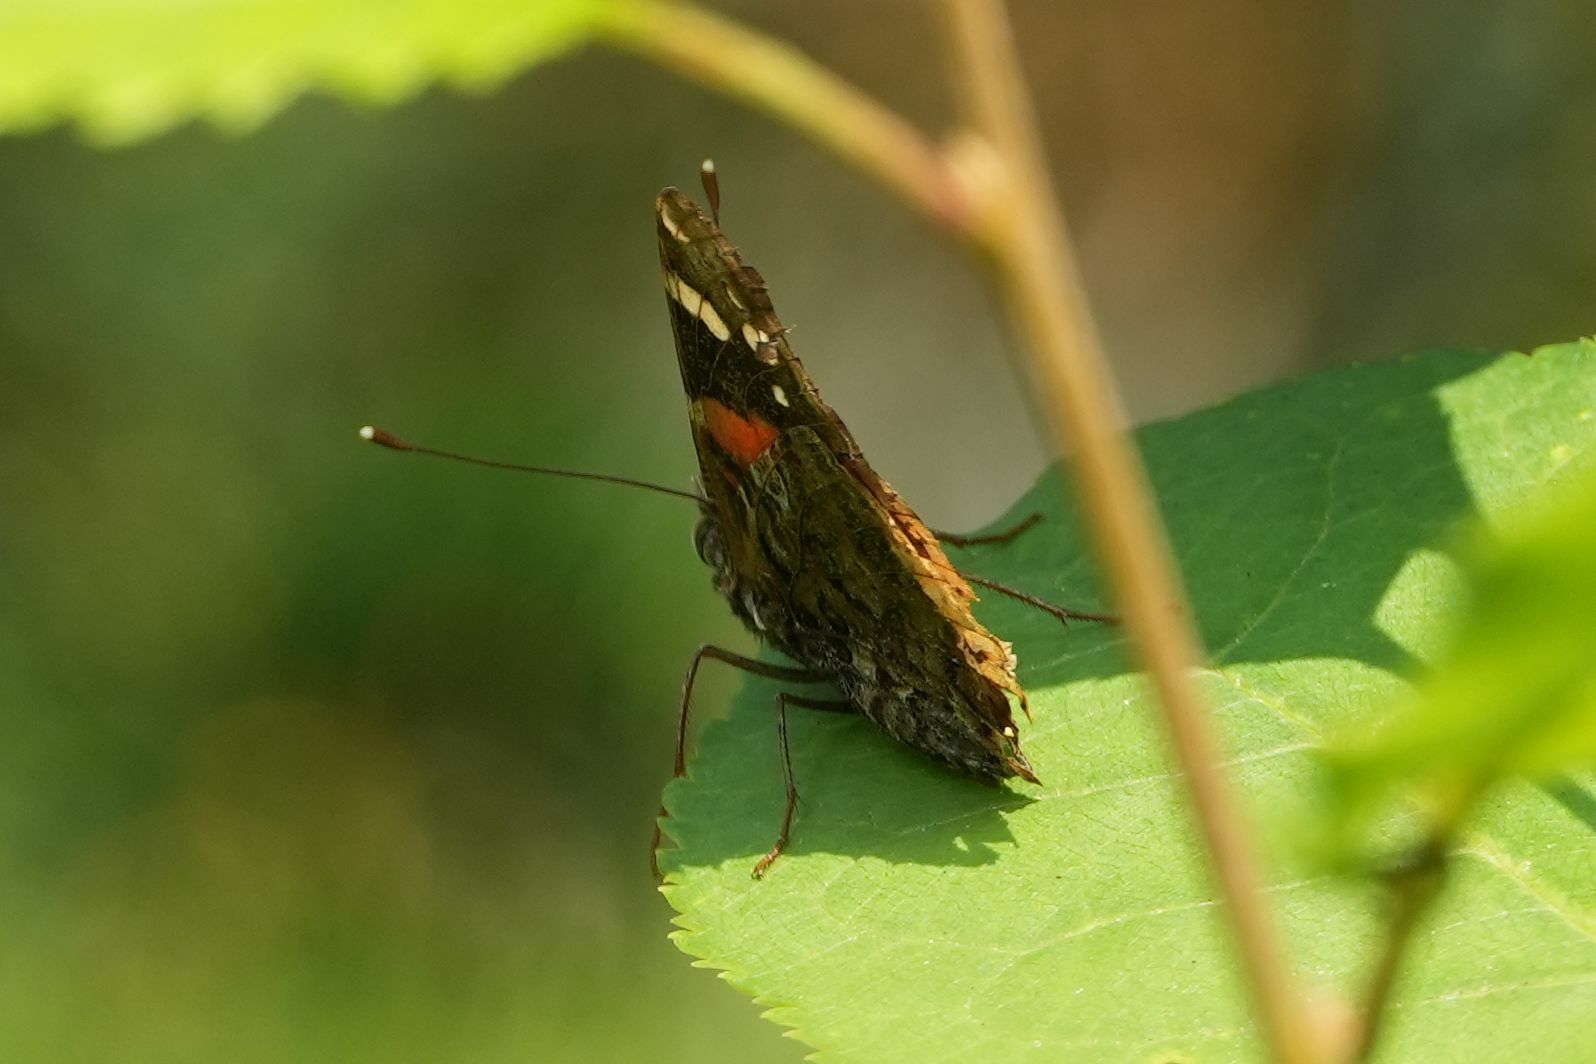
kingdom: Animalia
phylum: Arthropoda
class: Insecta
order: Lepidoptera
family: Nymphalidae
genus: Vanessa
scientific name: Vanessa atalanta
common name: Red admiral
